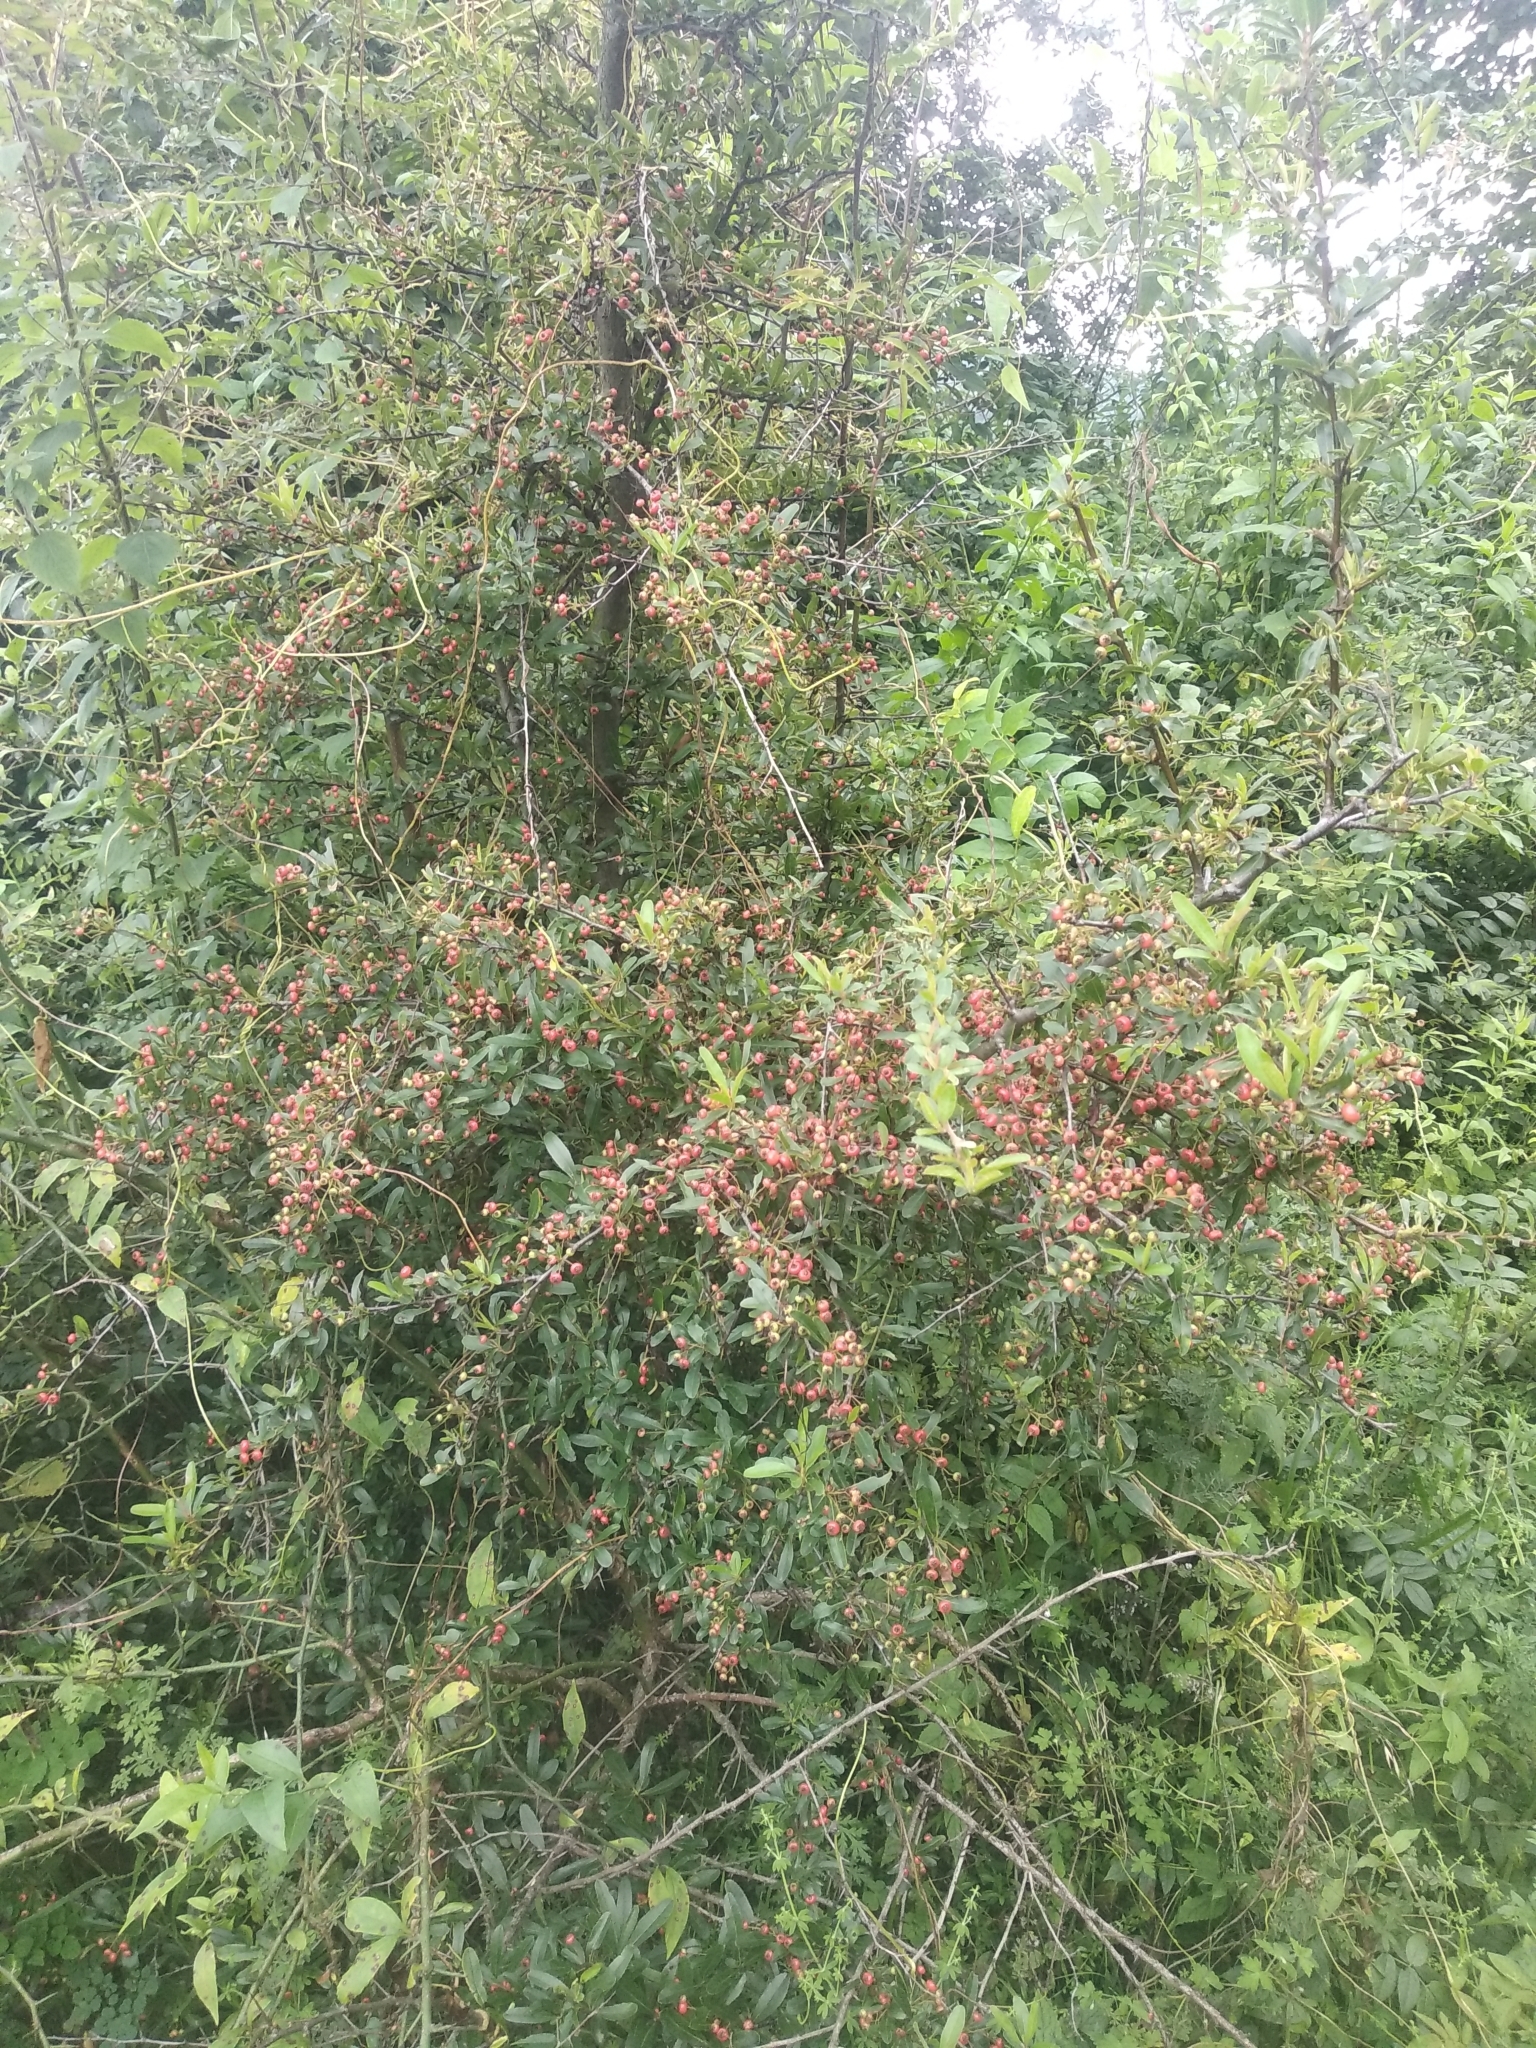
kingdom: Plantae
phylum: Tracheophyta
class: Magnoliopsida
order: Rosales
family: Rosaceae
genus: Pyracantha
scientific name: Pyracantha crenulata
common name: Nepalese firethorn
